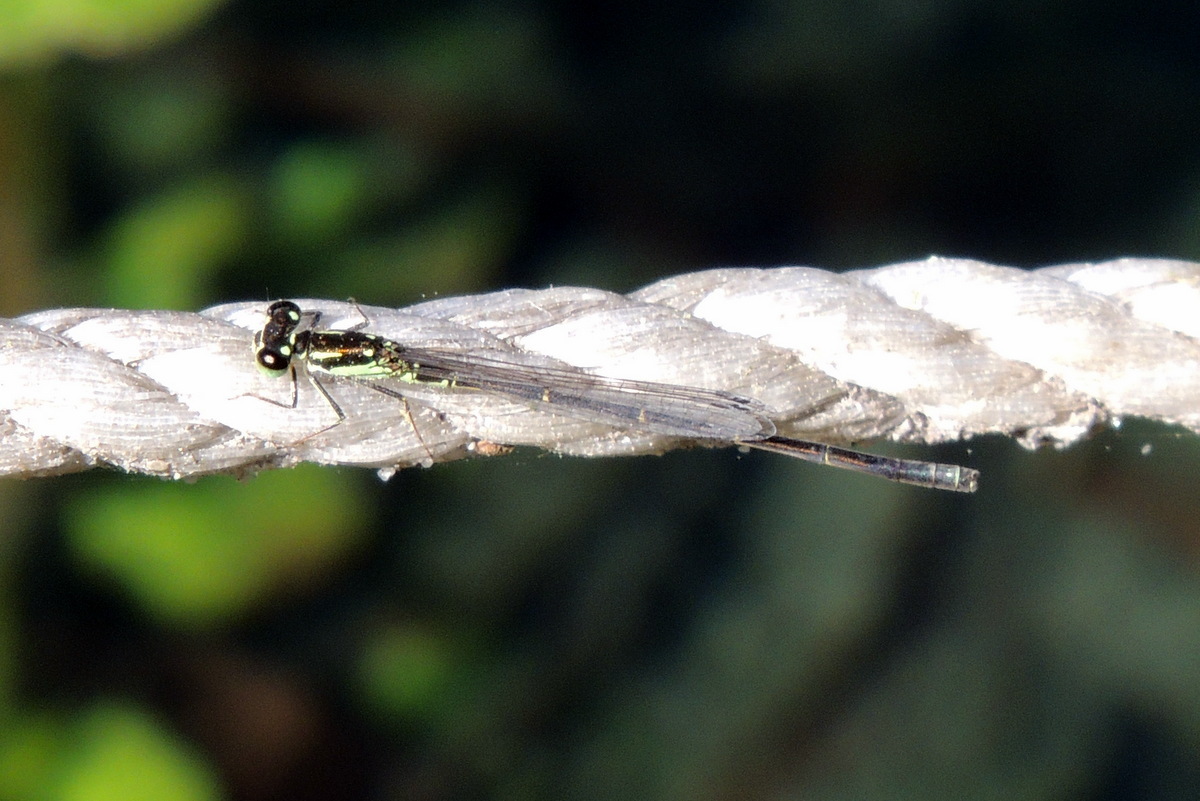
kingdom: Animalia
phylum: Arthropoda
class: Insecta
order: Odonata
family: Coenagrionidae
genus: Ischnura
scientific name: Ischnura posita
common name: Fragile forktail
